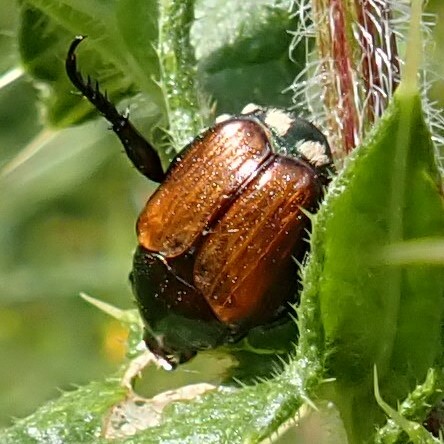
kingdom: Animalia
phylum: Arthropoda
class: Insecta
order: Coleoptera
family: Scarabaeidae
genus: Popillia
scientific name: Popillia japonica
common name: Japanese beetle
